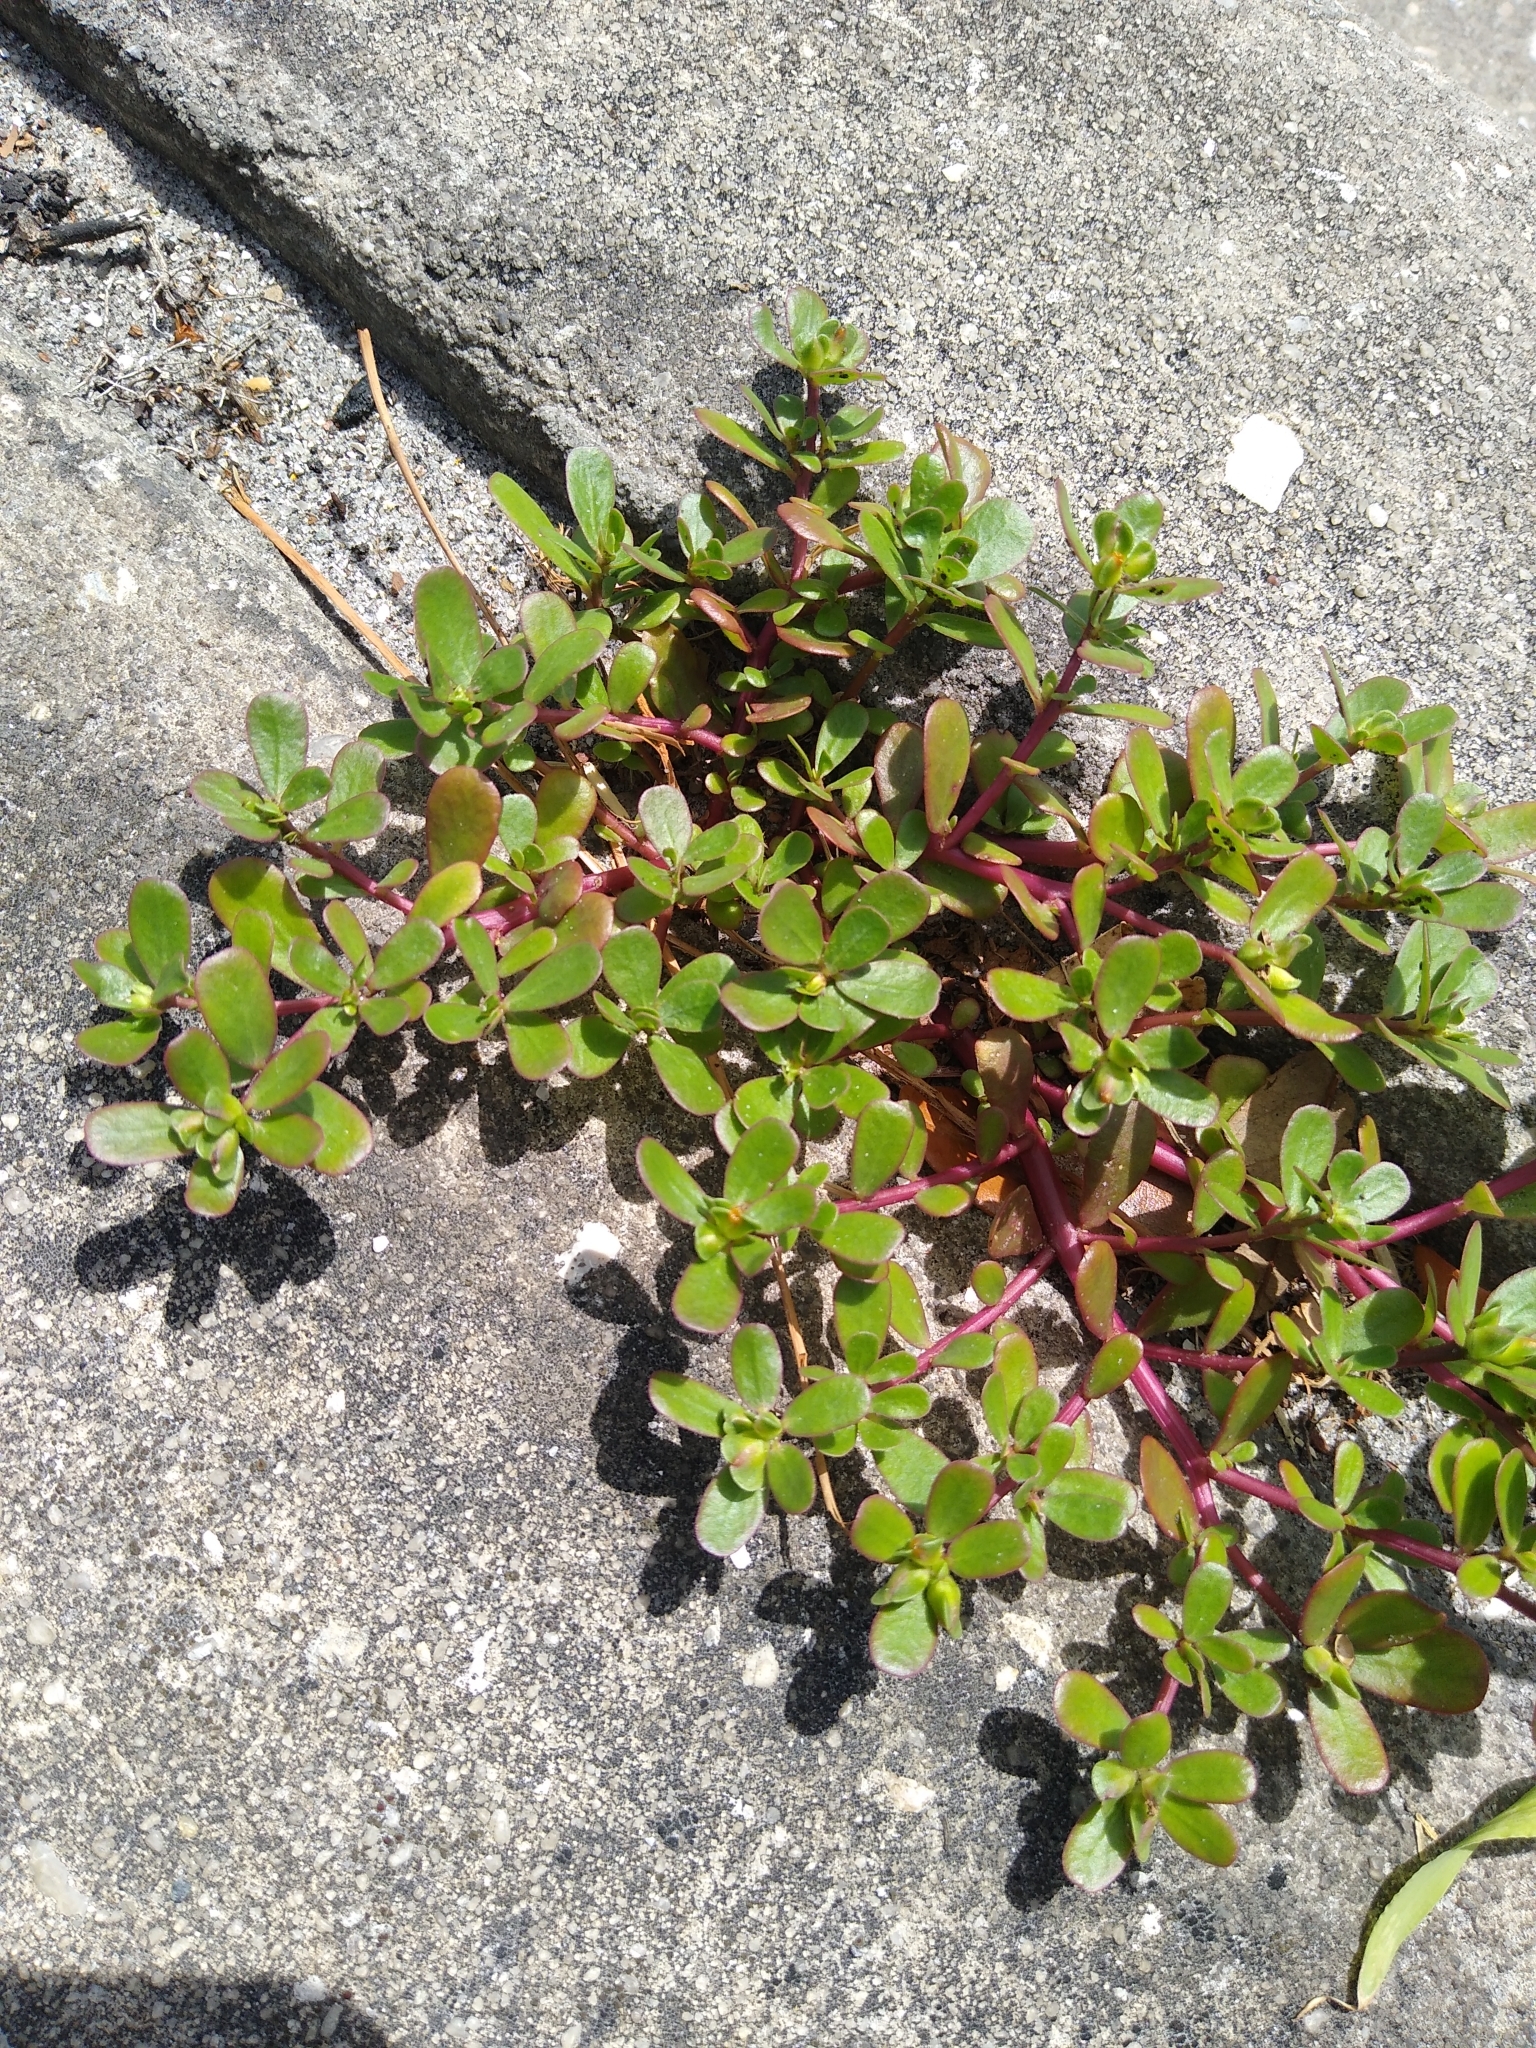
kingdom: Plantae
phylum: Tracheophyta
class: Magnoliopsida
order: Caryophyllales
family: Portulacaceae
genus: Portulaca
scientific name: Portulaca oleracea
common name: Common purslane
